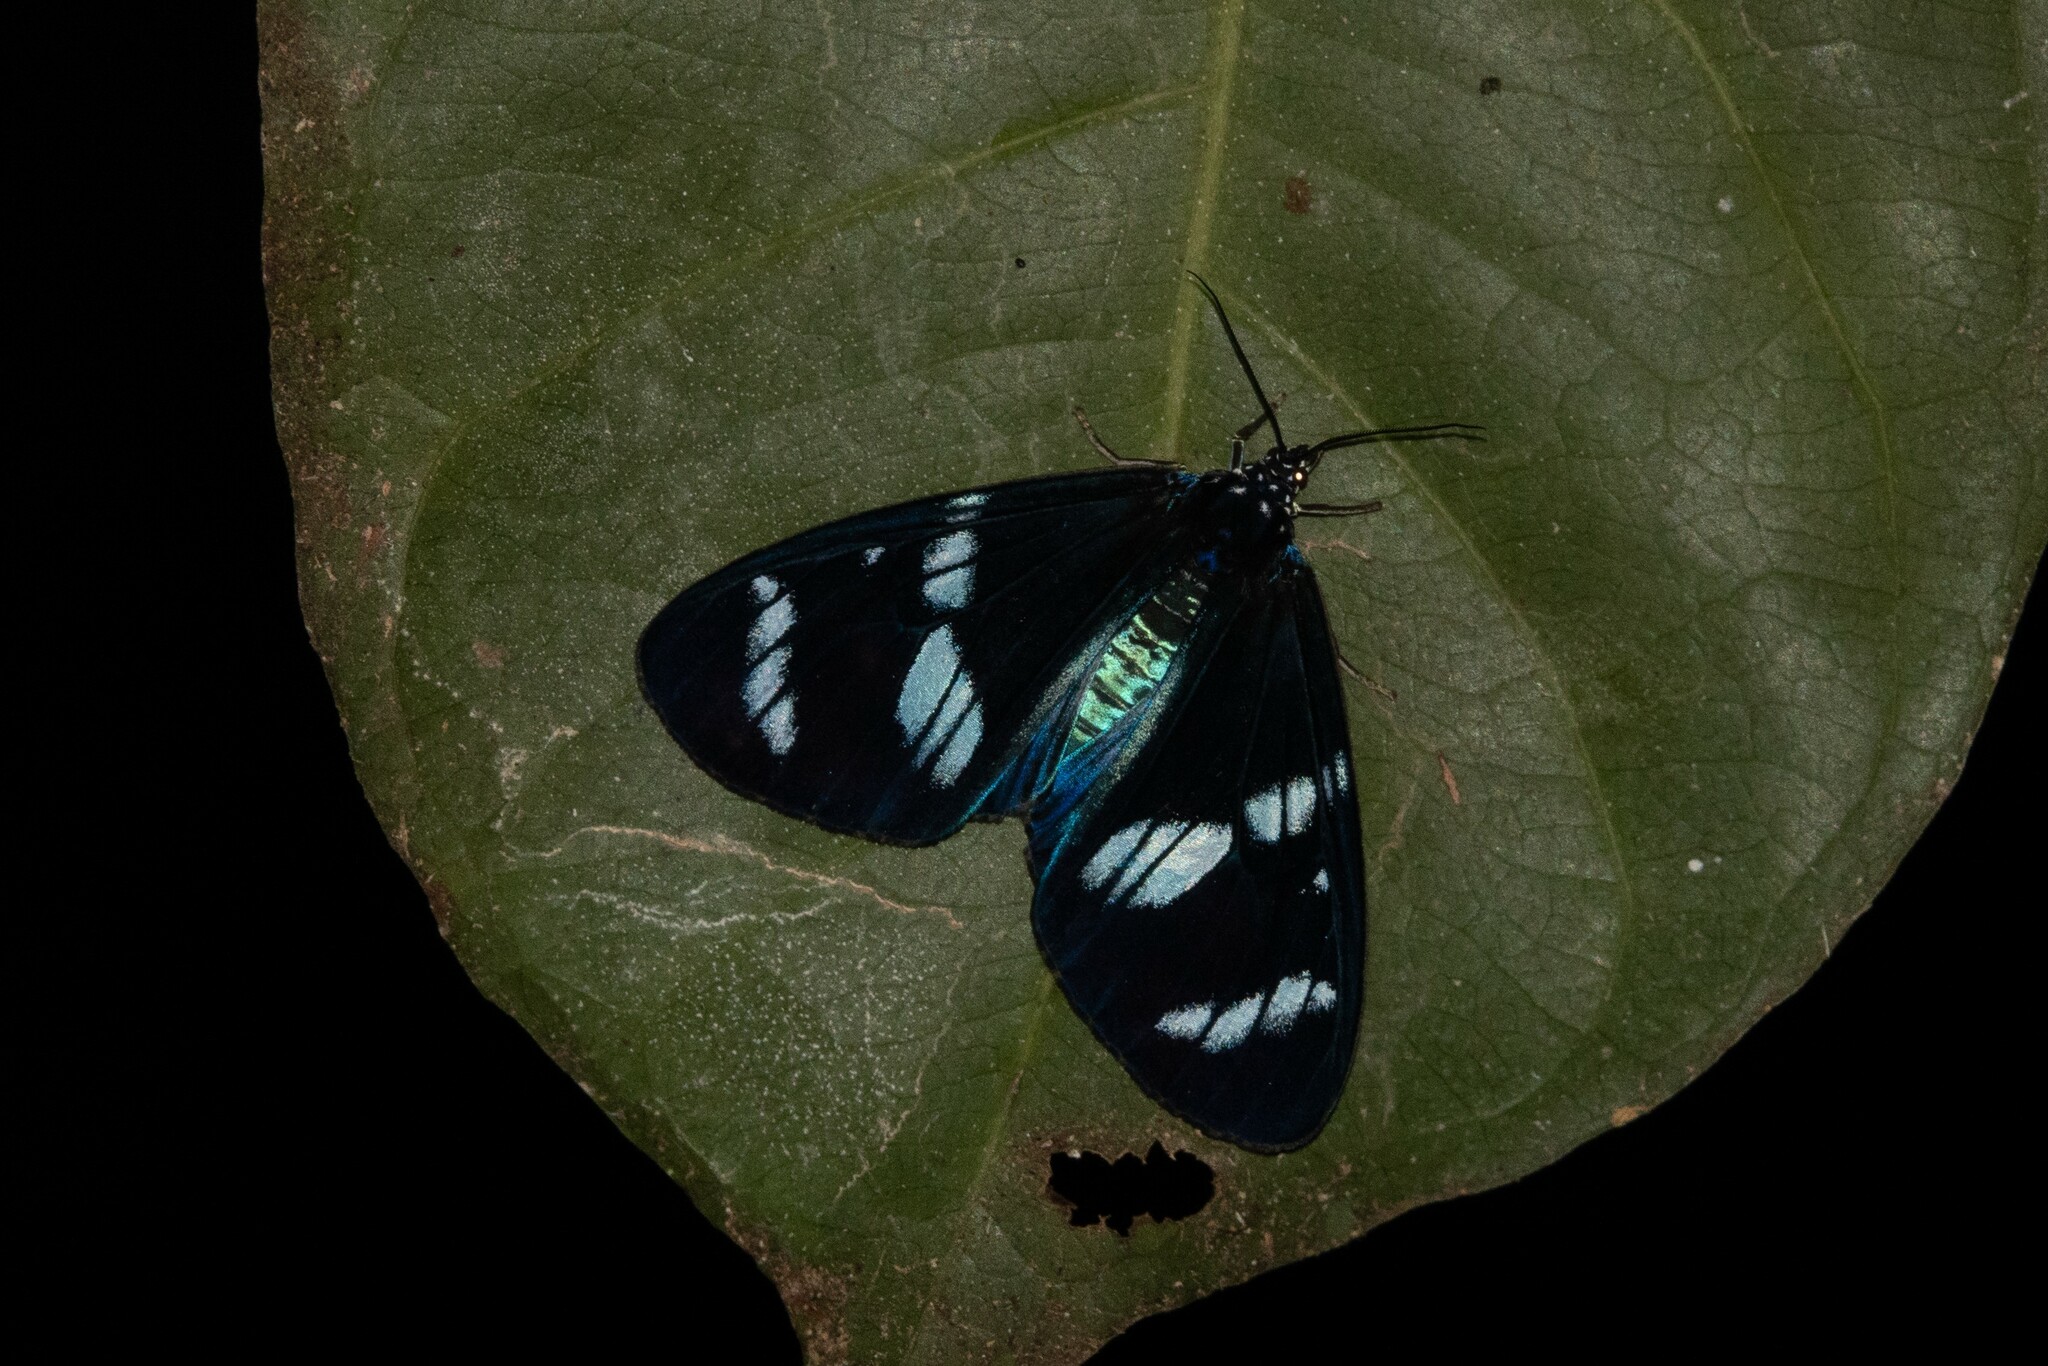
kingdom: Animalia
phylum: Arthropoda
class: Insecta
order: Lepidoptera
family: Erebidae
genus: Hypocrita
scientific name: Hypocrita plagifera
